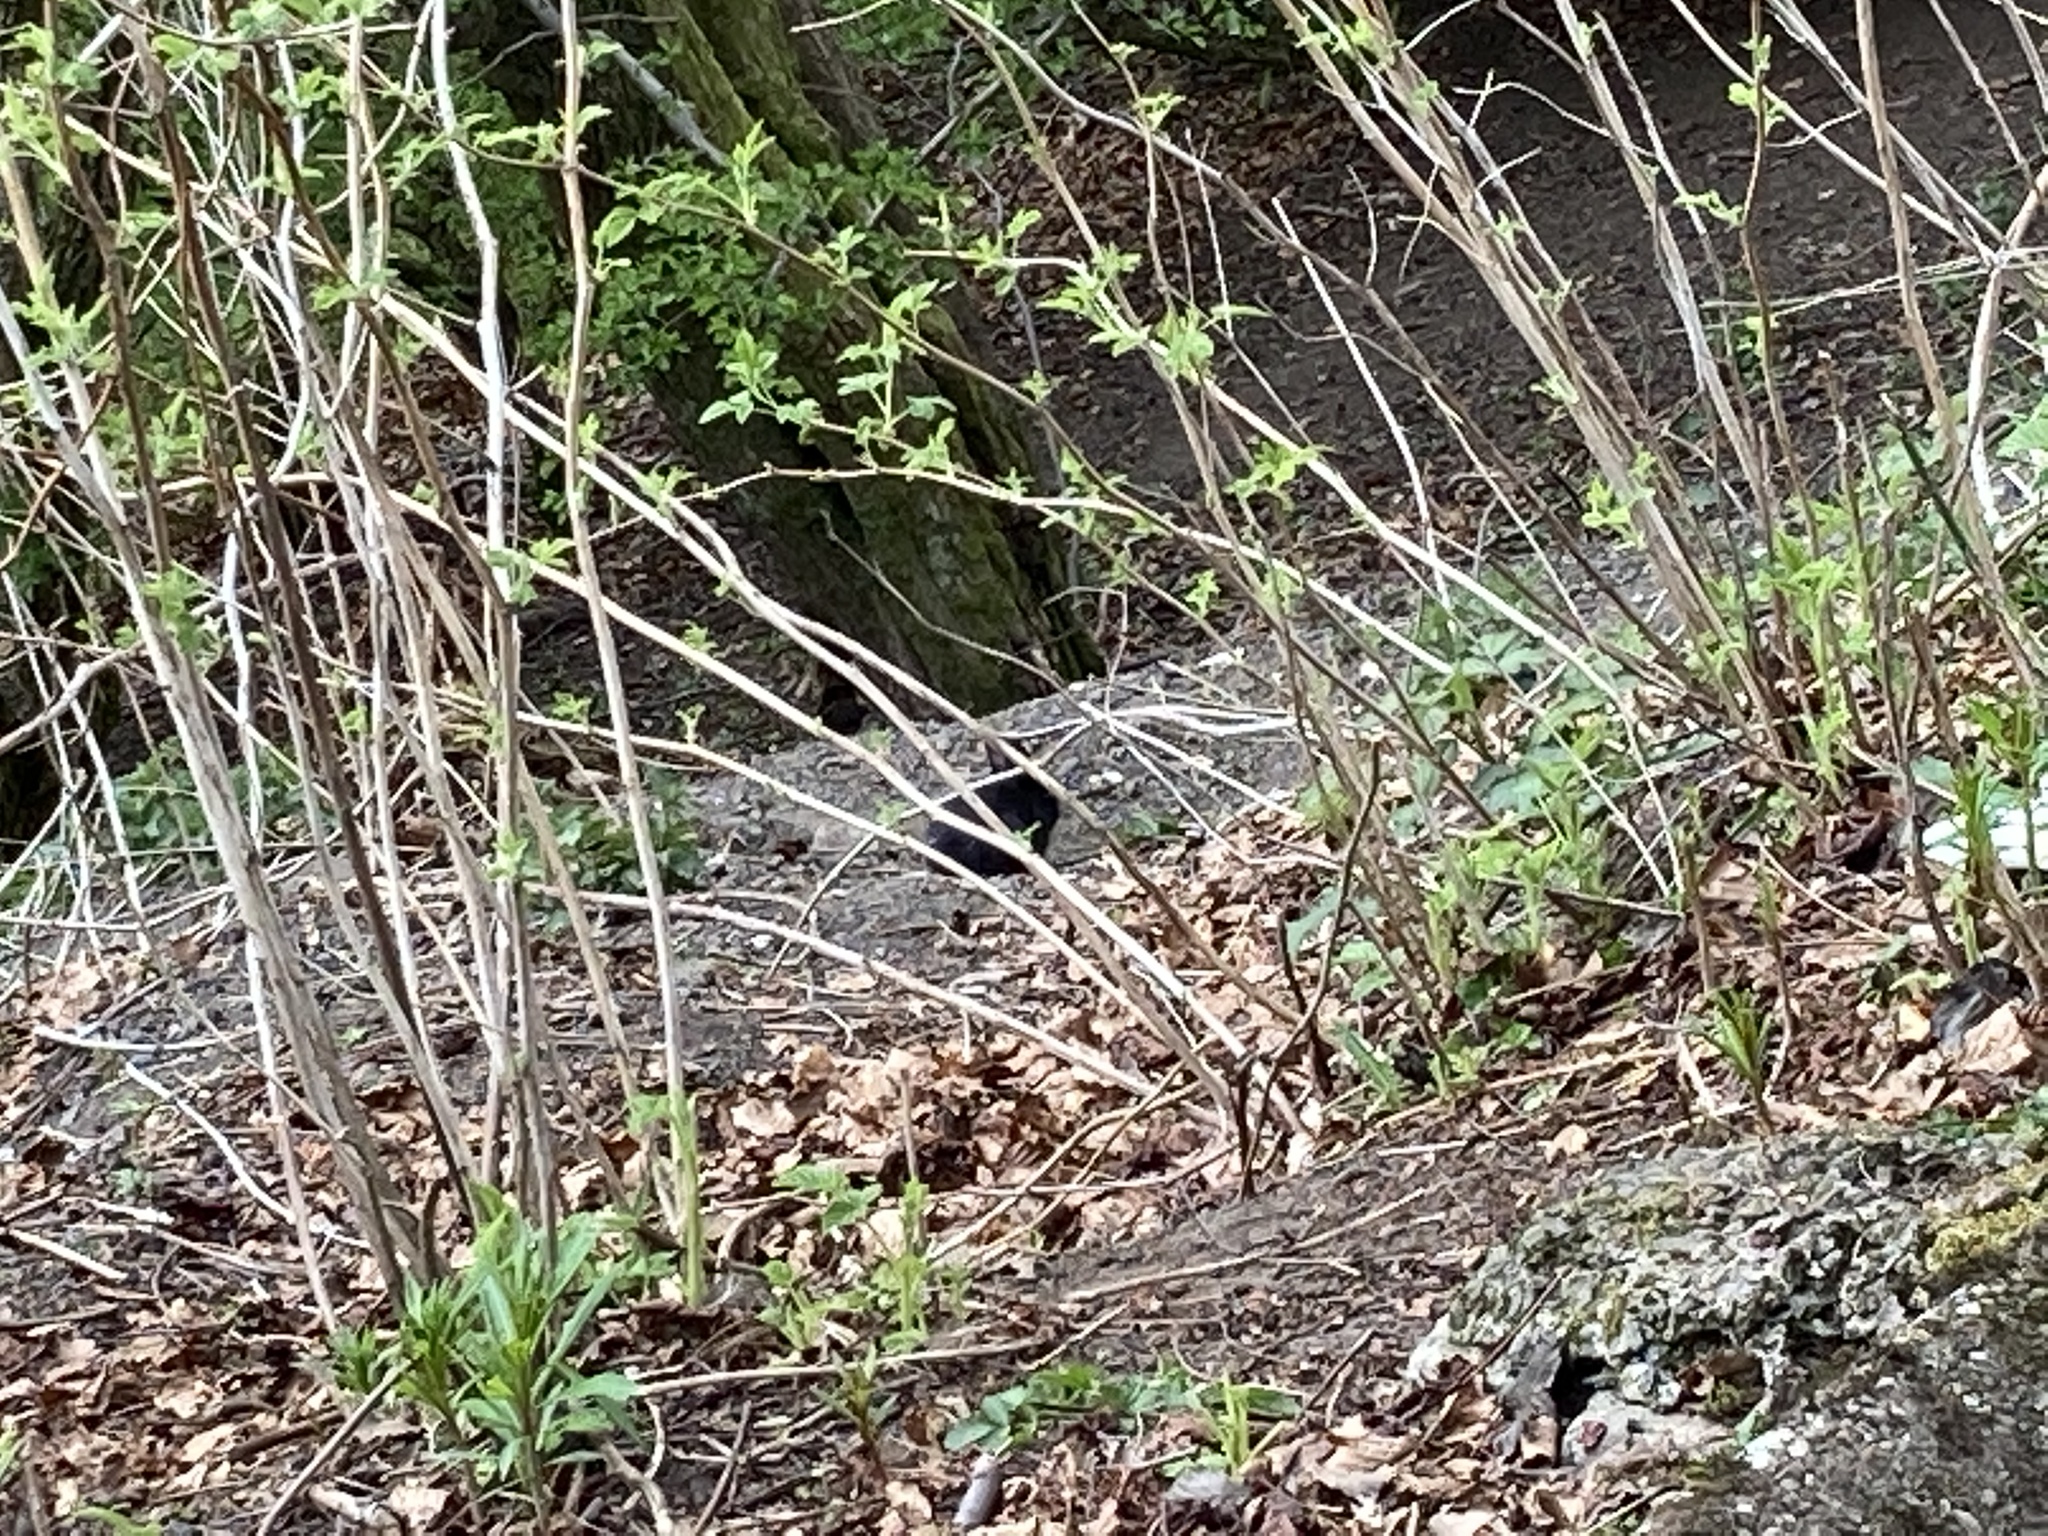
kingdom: Animalia
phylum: Chordata
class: Mammalia
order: Lagomorpha
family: Leporidae
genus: Oryctolagus
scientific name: Oryctolagus cuniculus
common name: European rabbit
